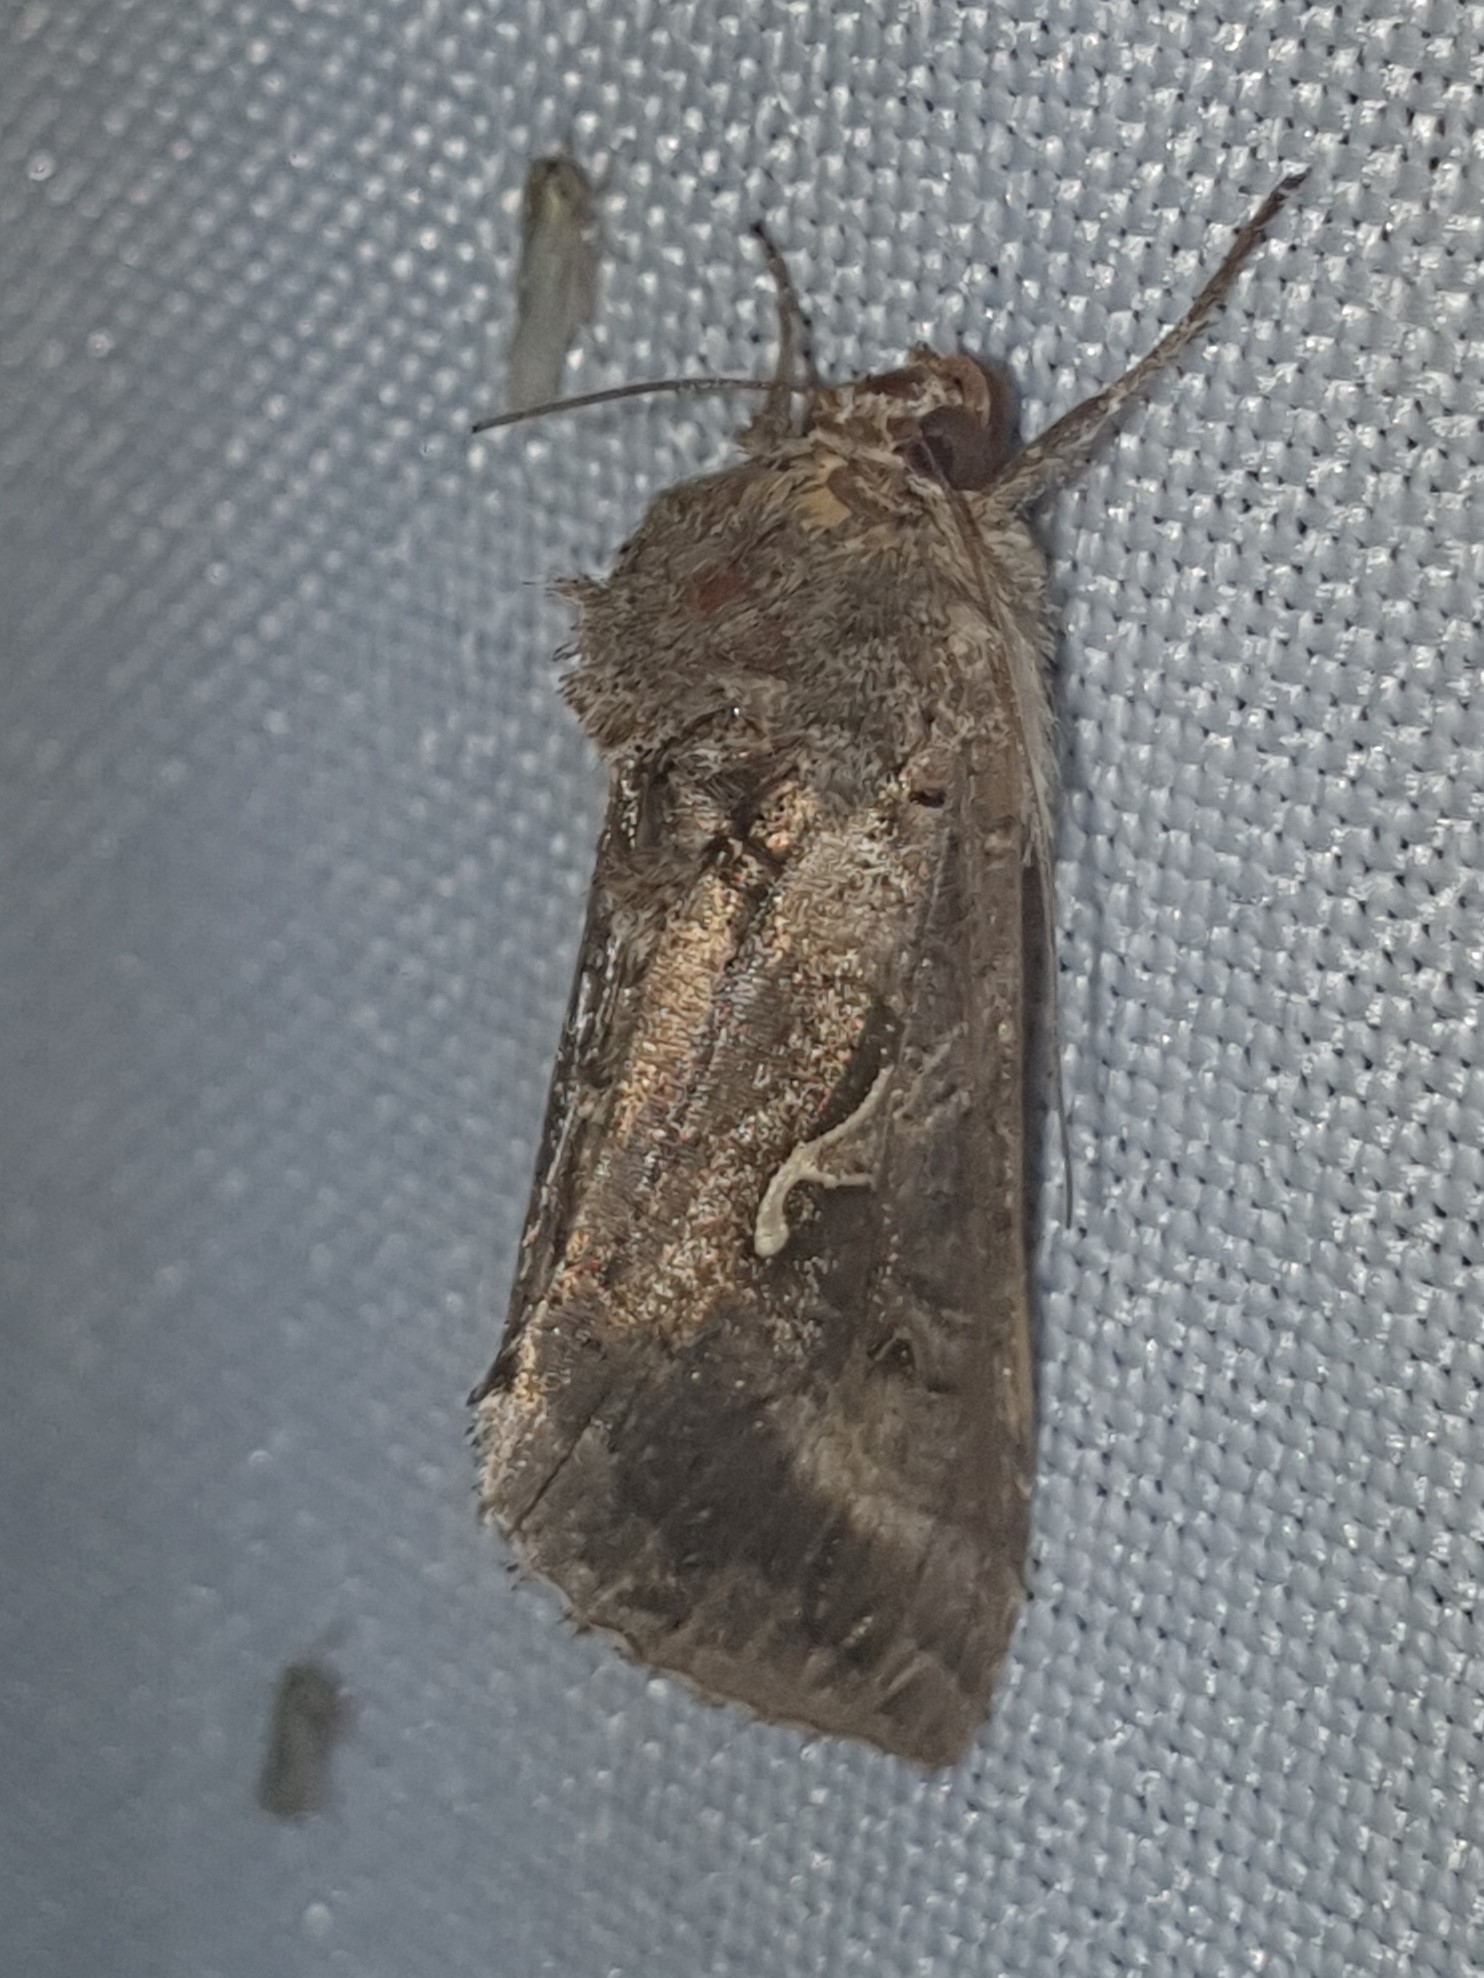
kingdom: Animalia
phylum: Arthropoda
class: Insecta
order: Lepidoptera
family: Noctuidae
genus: Autographa
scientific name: Autographa gamma
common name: Silver y
